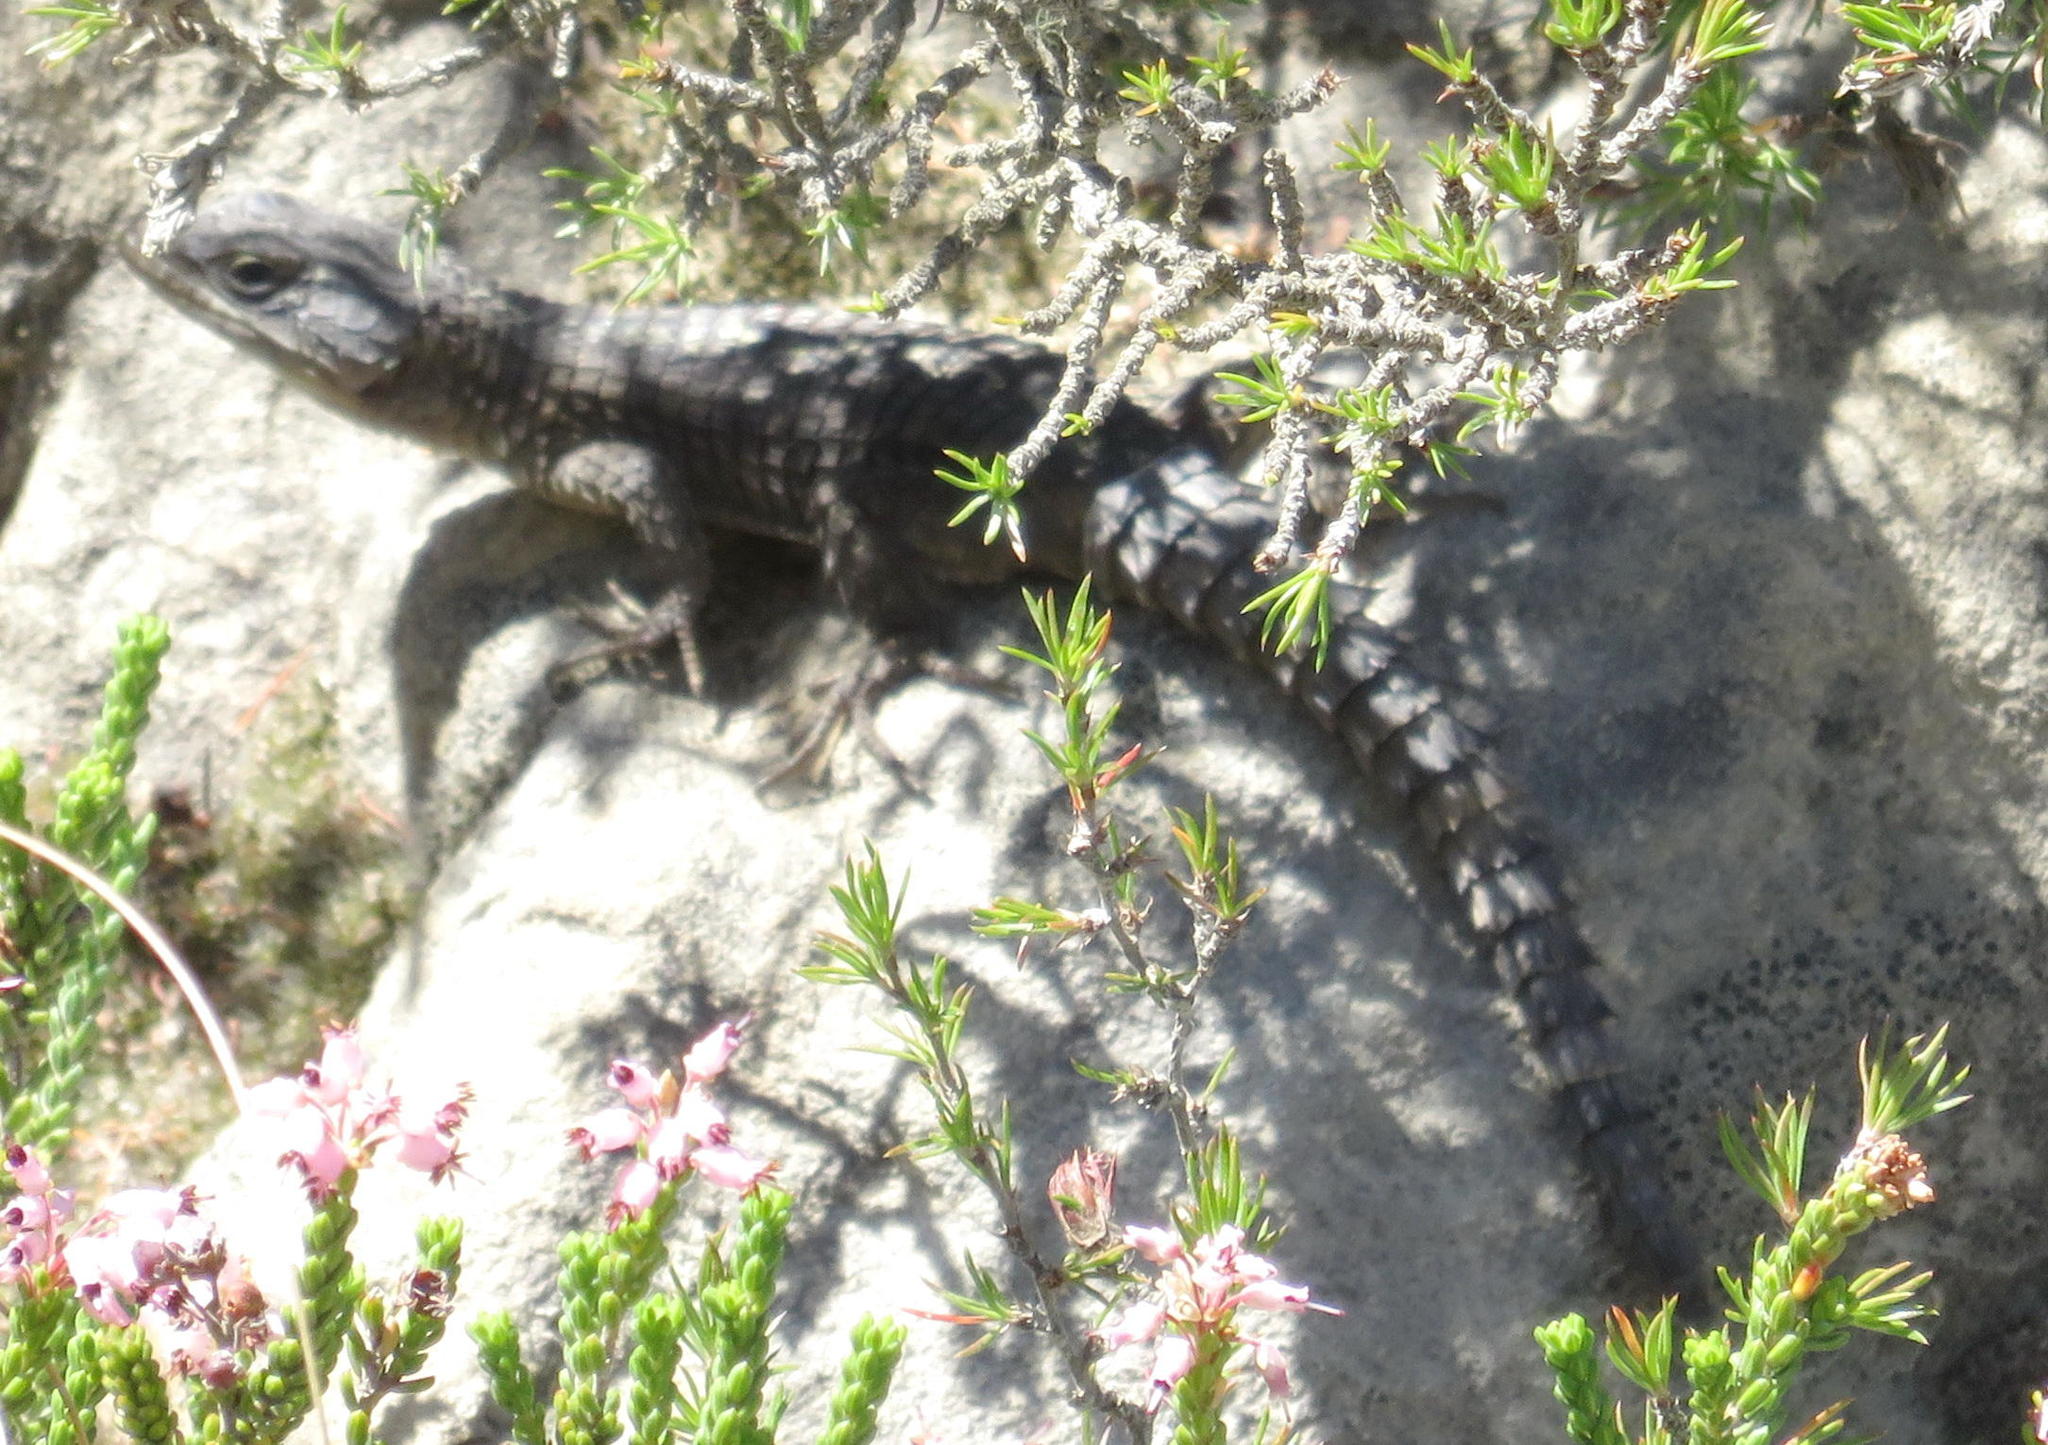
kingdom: Animalia
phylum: Chordata
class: Squamata
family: Cordylidae
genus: Cordylus
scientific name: Cordylus cordylus
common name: Cape girdled lizard
